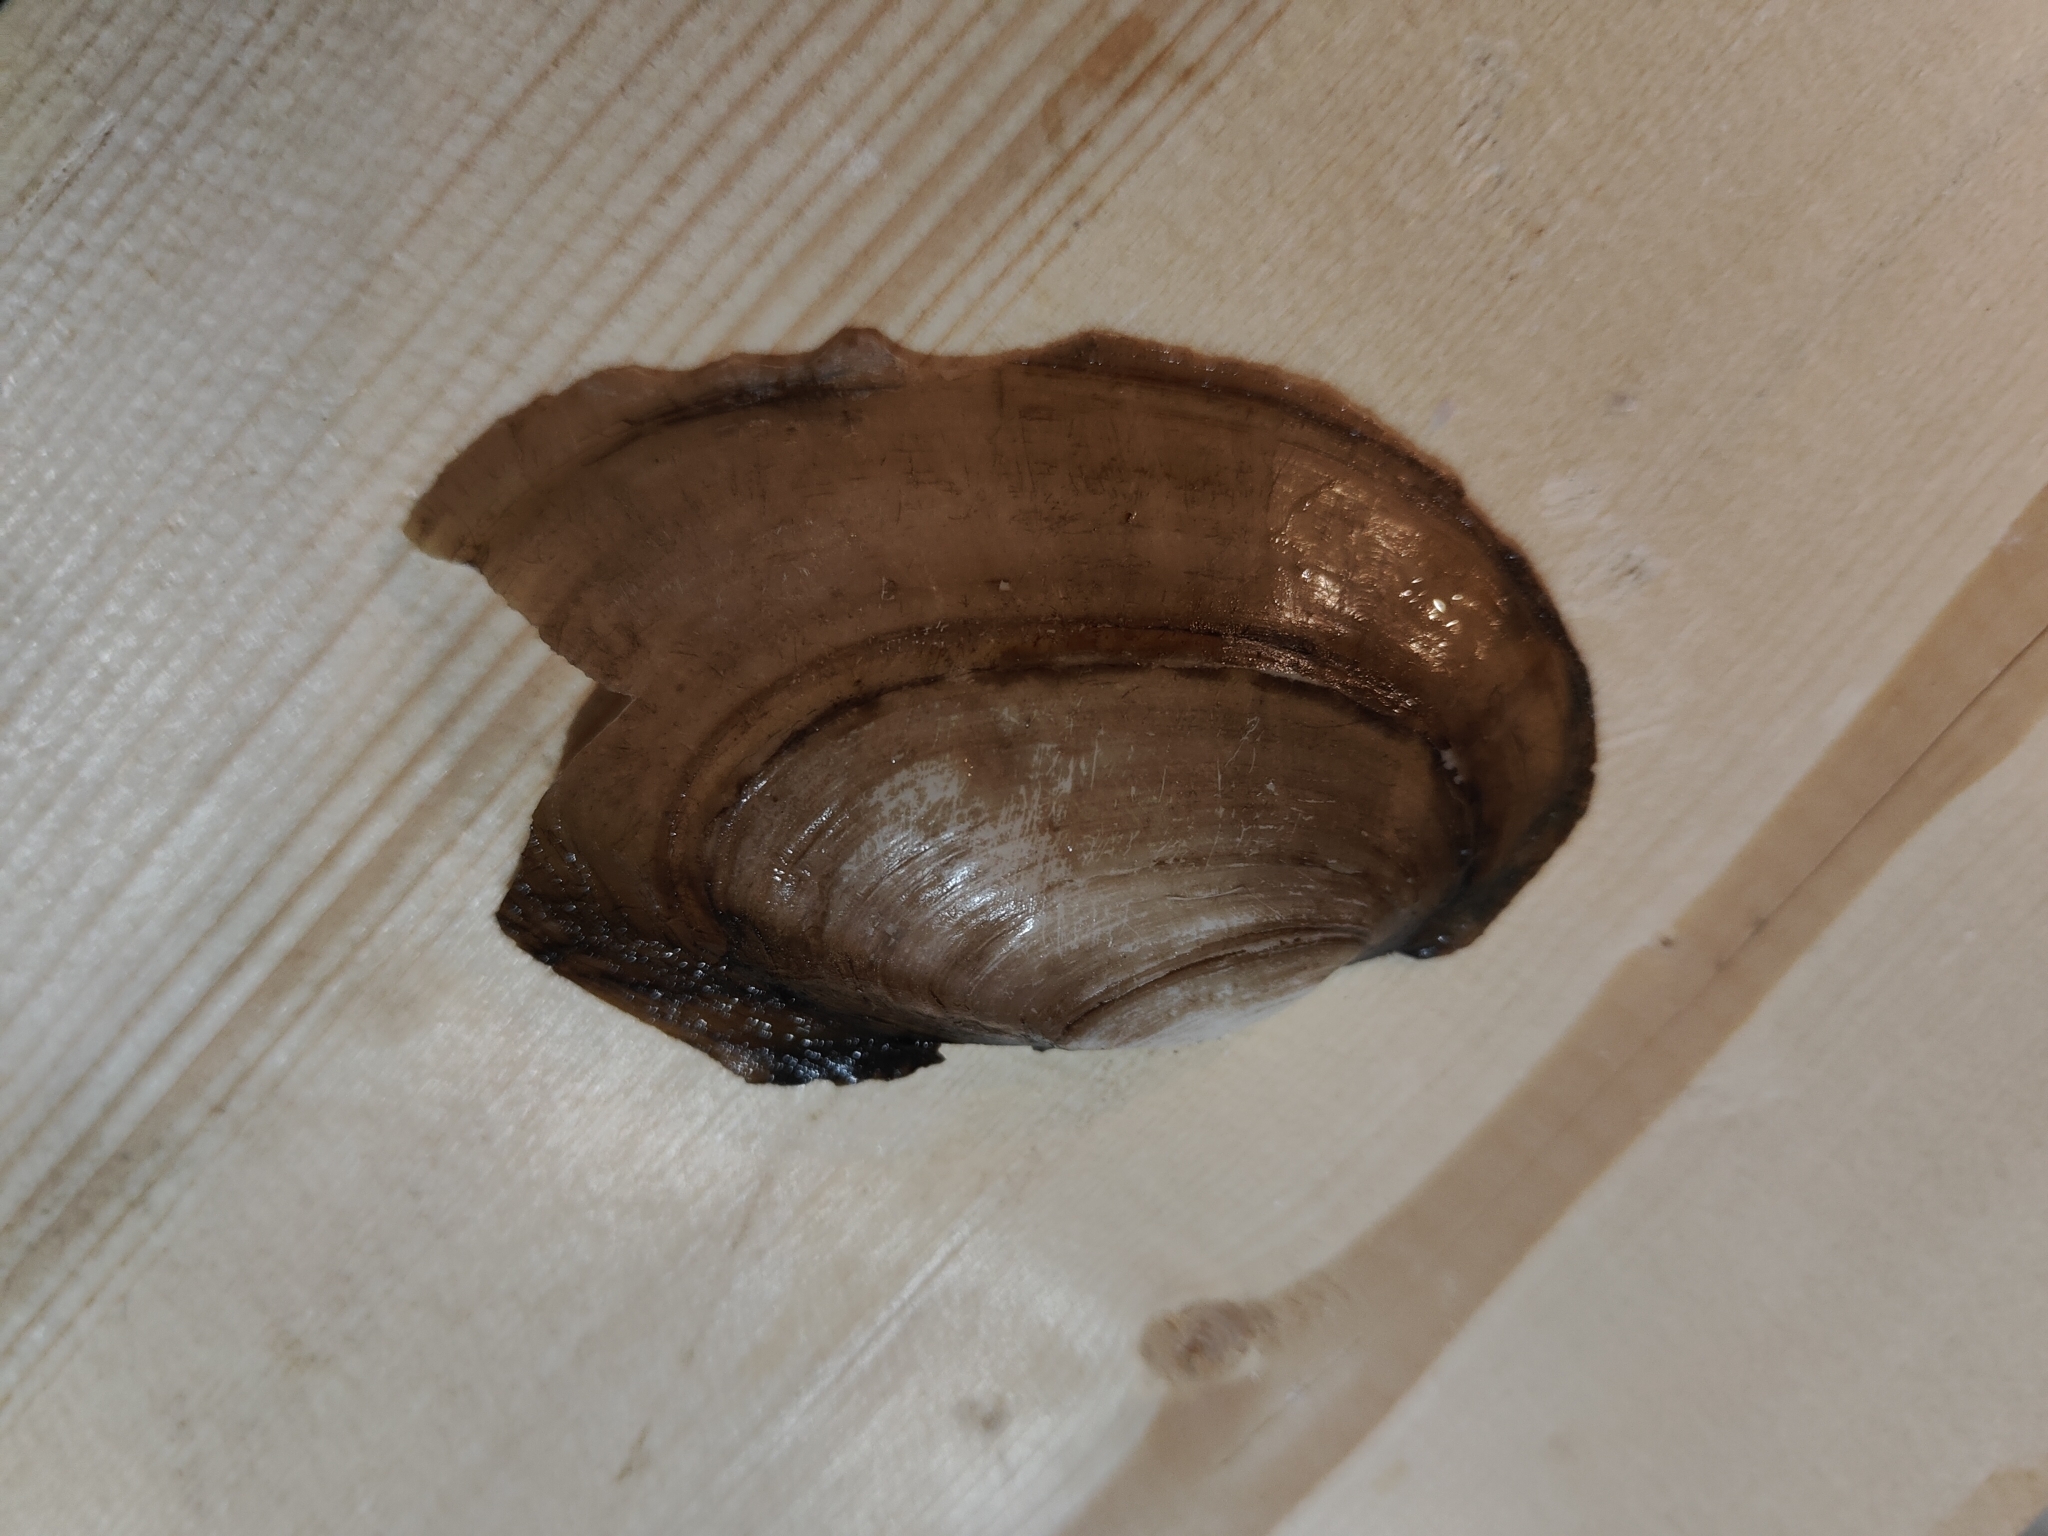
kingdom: Animalia
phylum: Mollusca
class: Bivalvia
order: Unionida
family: Unionidae
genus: Potamilus
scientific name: Potamilus fragilis
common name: Fragile papershell
